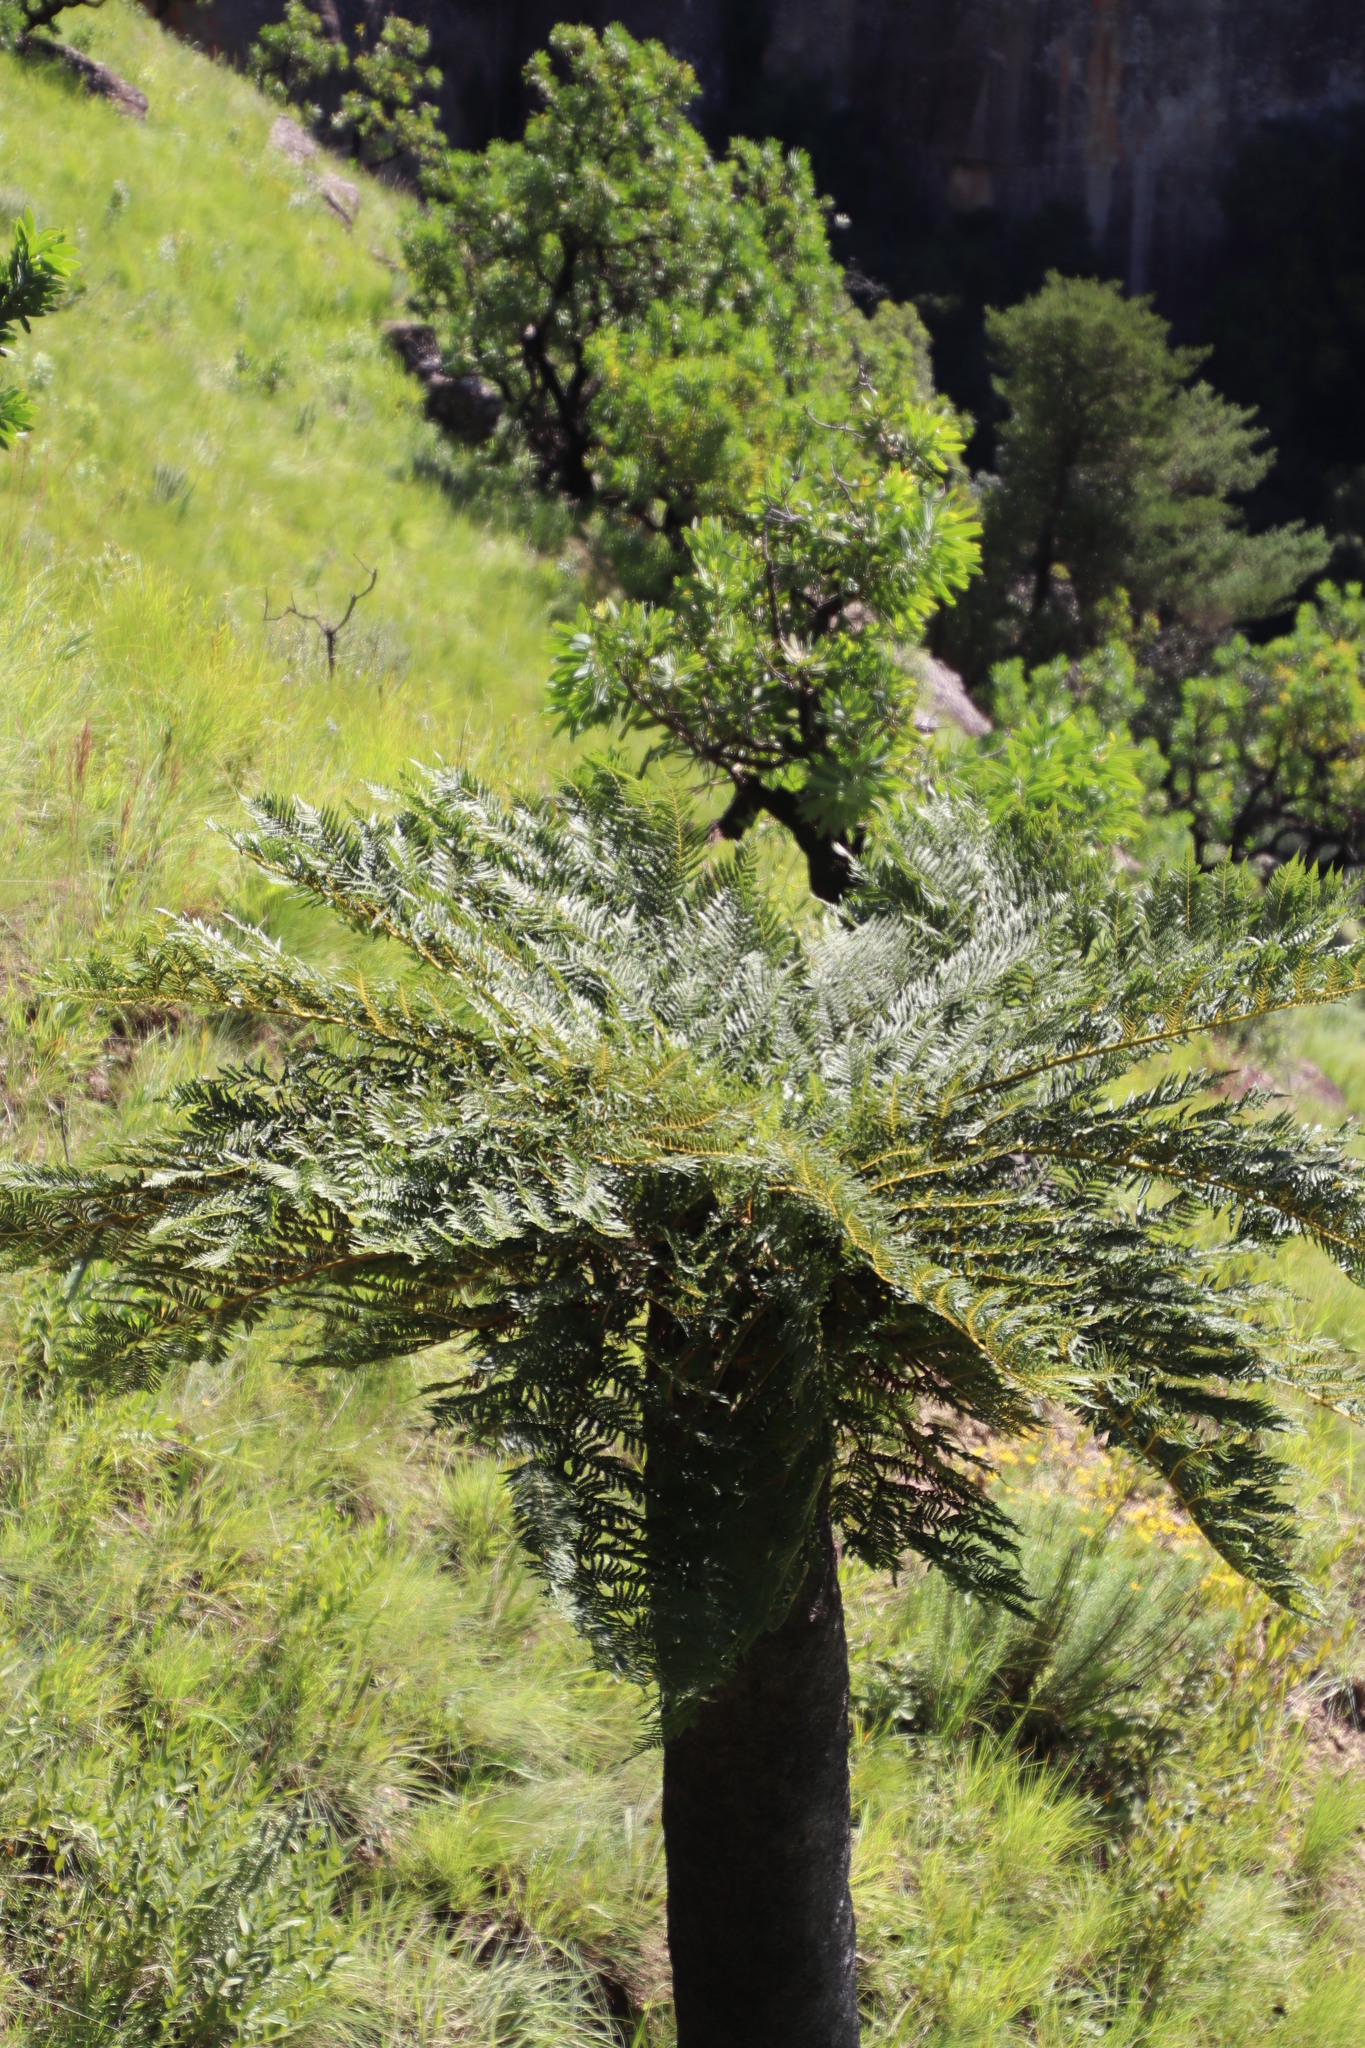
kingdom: Plantae
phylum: Tracheophyta
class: Polypodiopsida
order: Cyatheales
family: Cyatheaceae
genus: Alsophila
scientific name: Alsophila dregei
